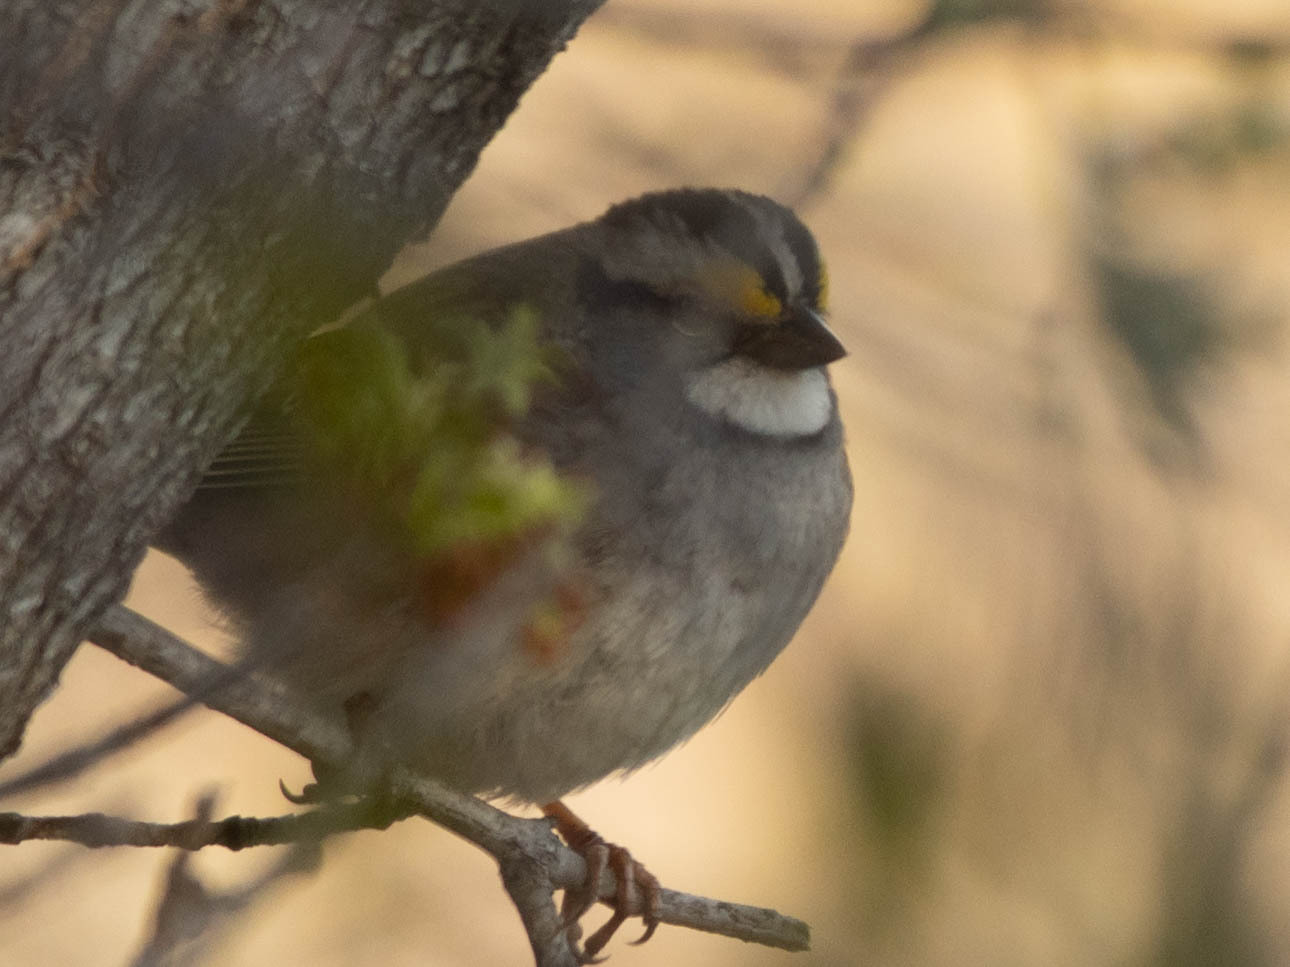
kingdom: Animalia
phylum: Chordata
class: Aves
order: Passeriformes
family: Passerellidae
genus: Zonotrichia
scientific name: Zonotrichia albicollis
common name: White-throated sparrow
